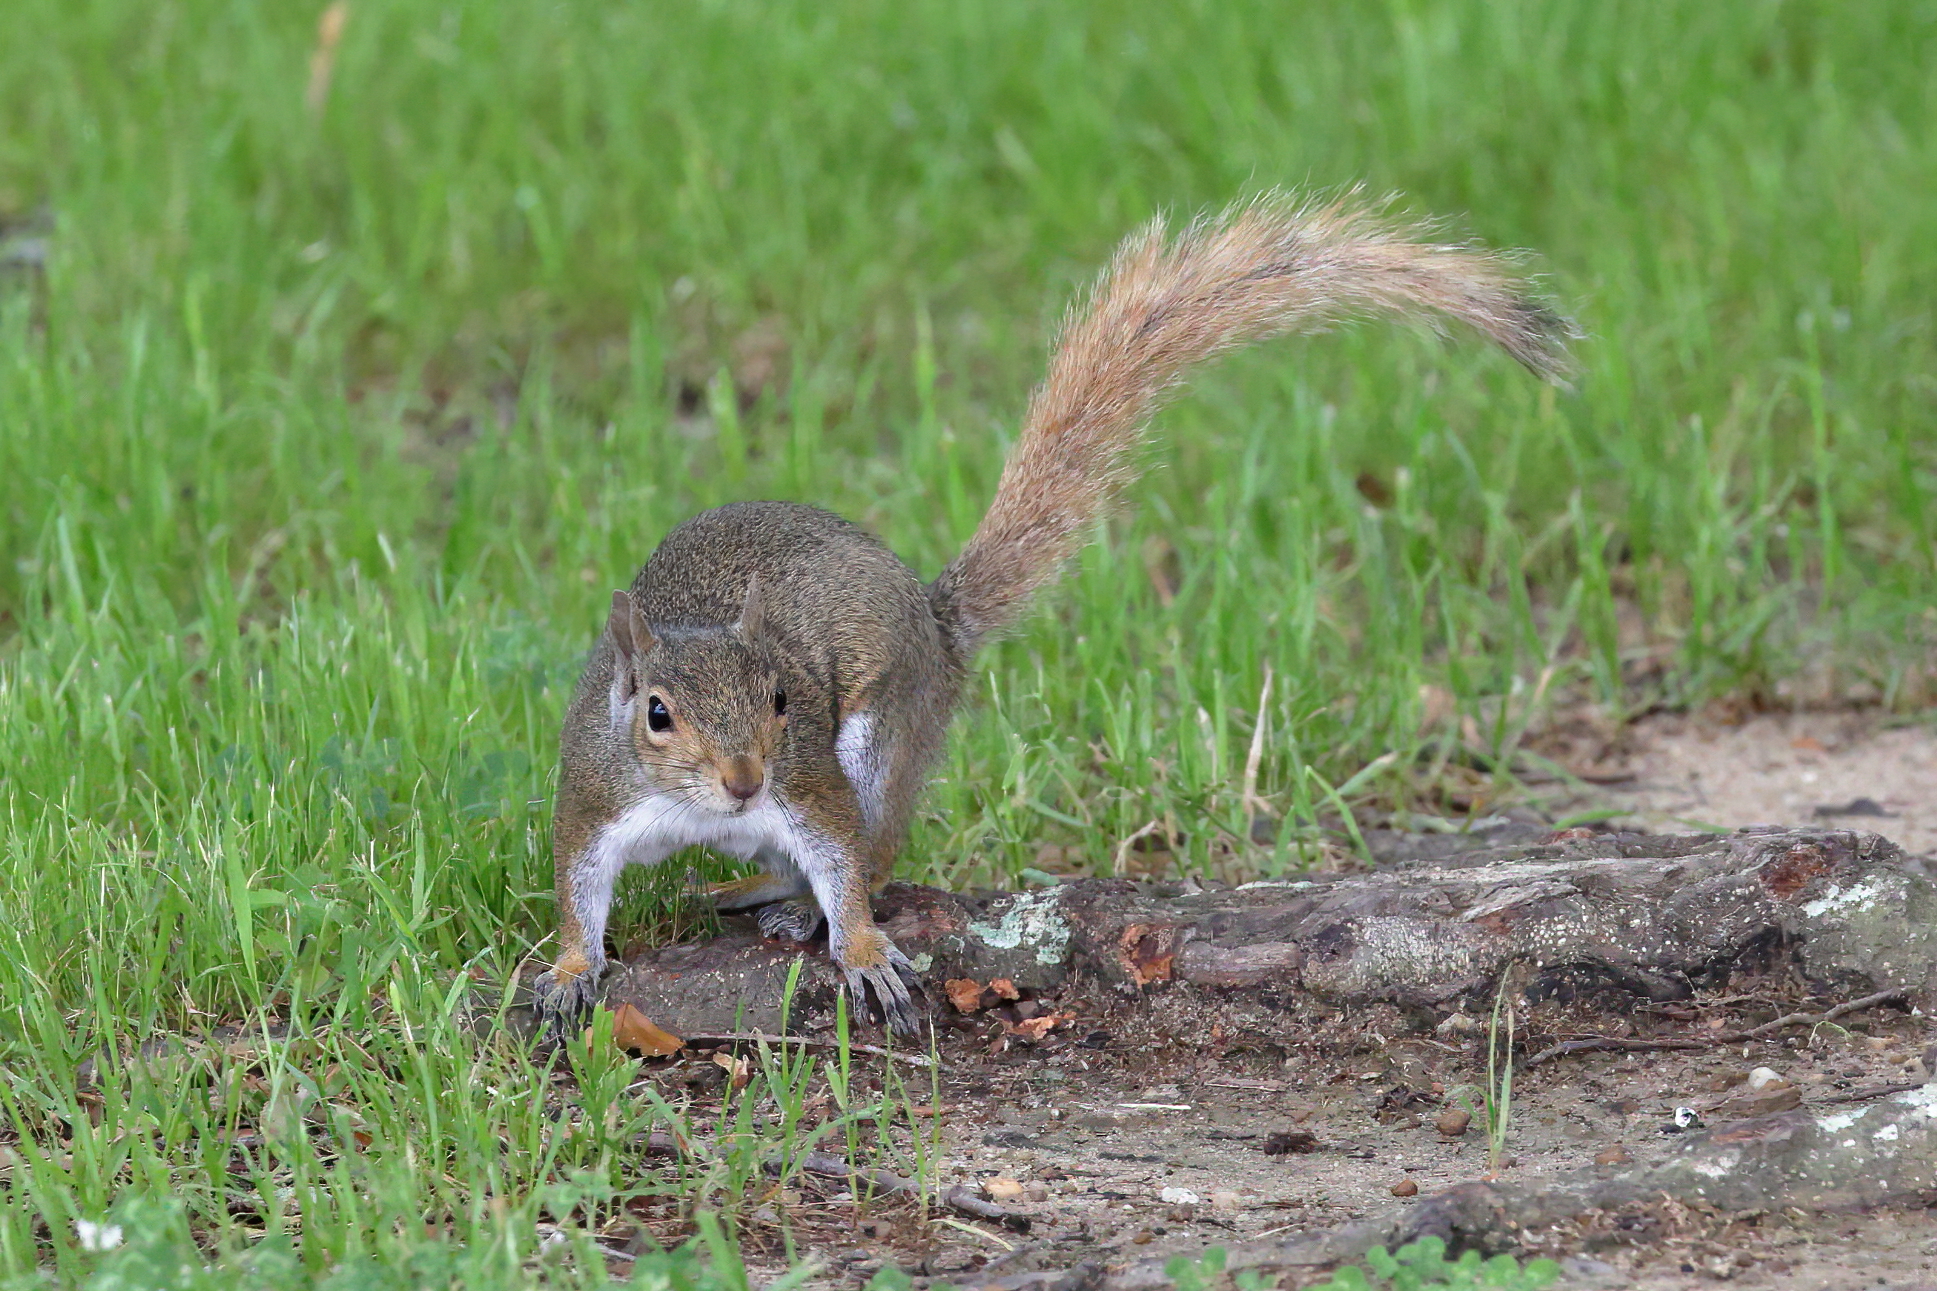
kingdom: Animalia
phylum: Chordata
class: Mammalia
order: Rodentia
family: Sciuridae
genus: Sciurus
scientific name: Sciurus carolinensis
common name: Eastern gray squirrel
